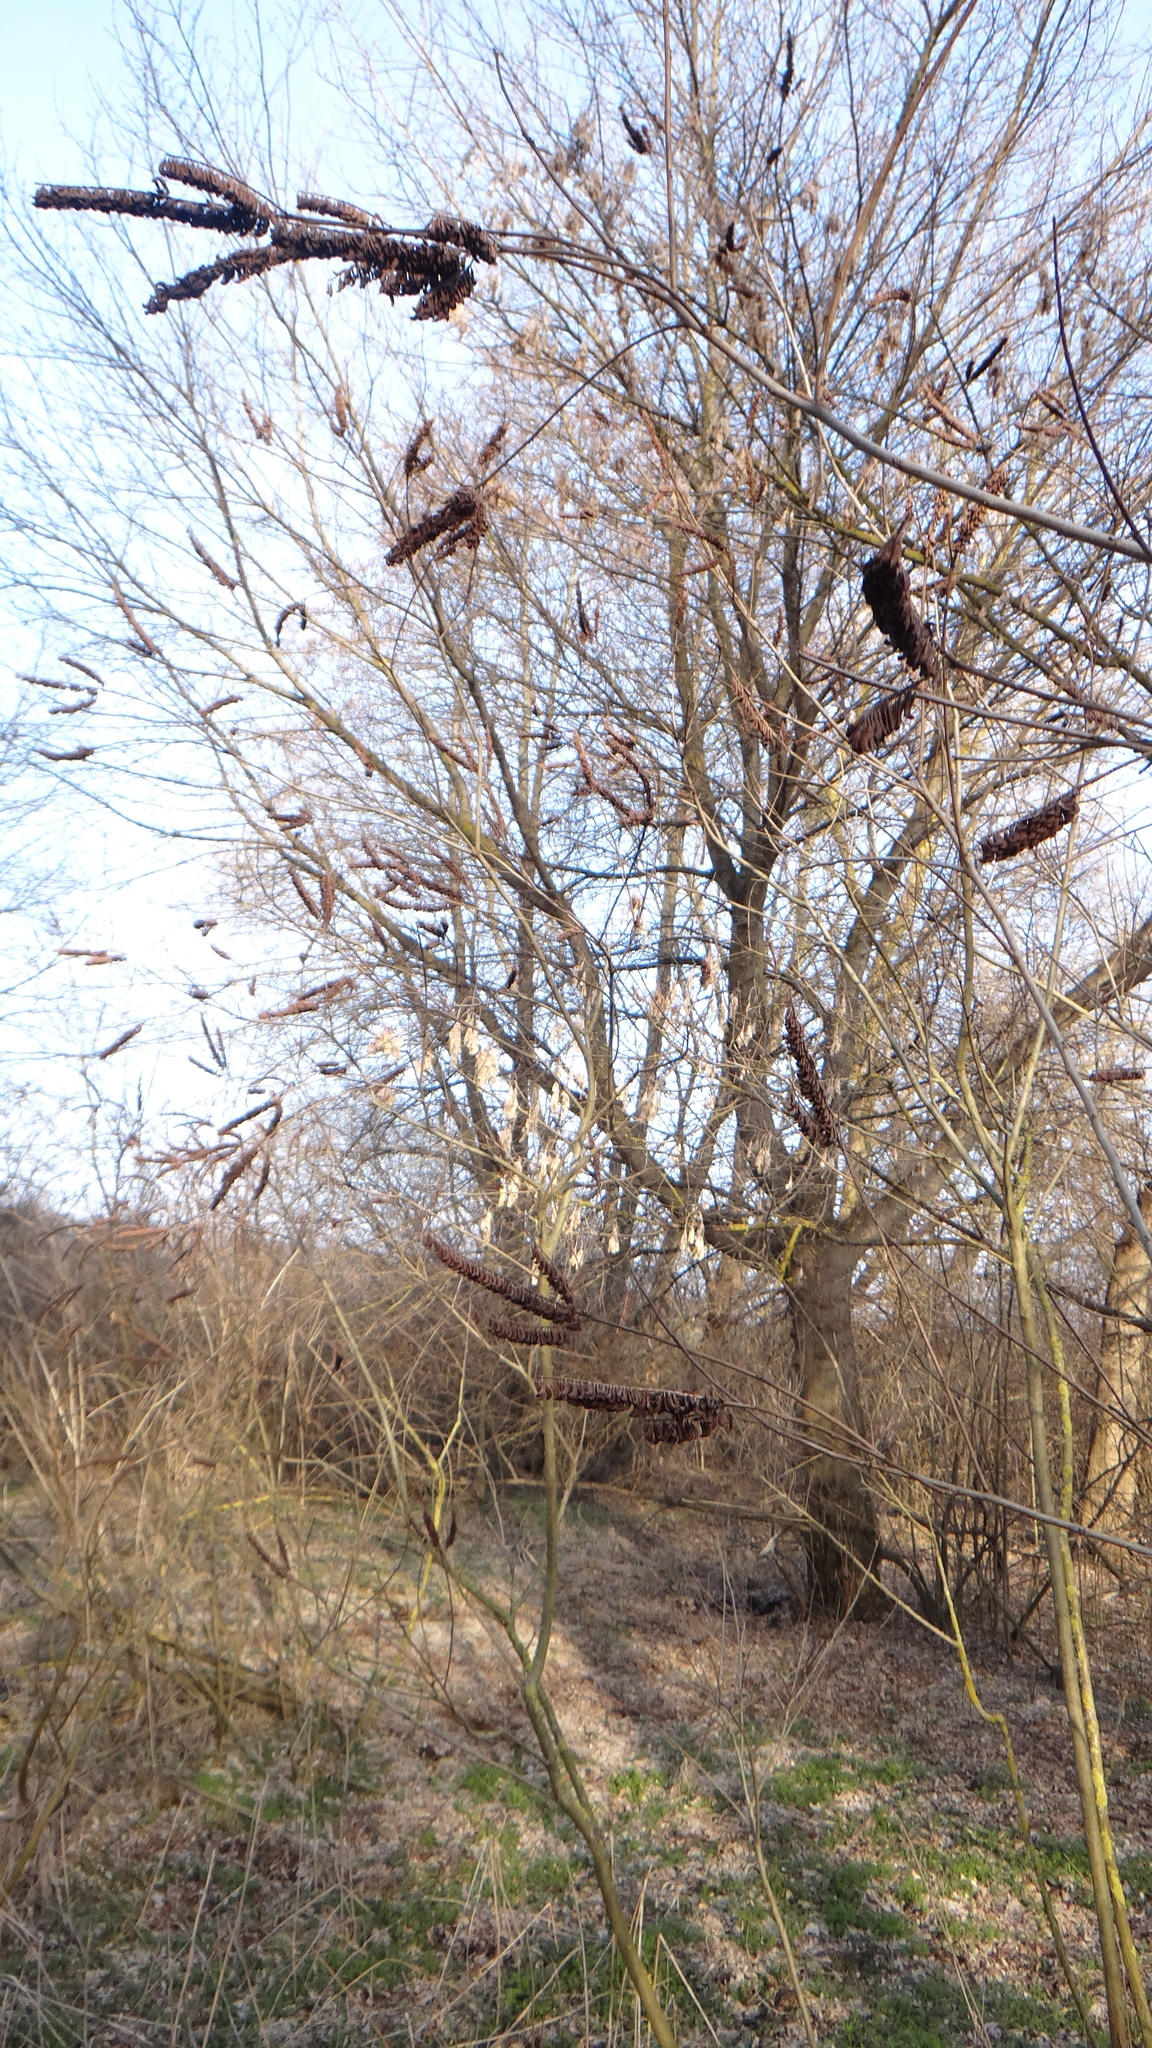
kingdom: Plantae
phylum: Tracheophyta
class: Magnoliopsida
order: Fabales
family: Fabaceae
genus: Amorpha
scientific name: Amorpha fruticosa
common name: False indigo
